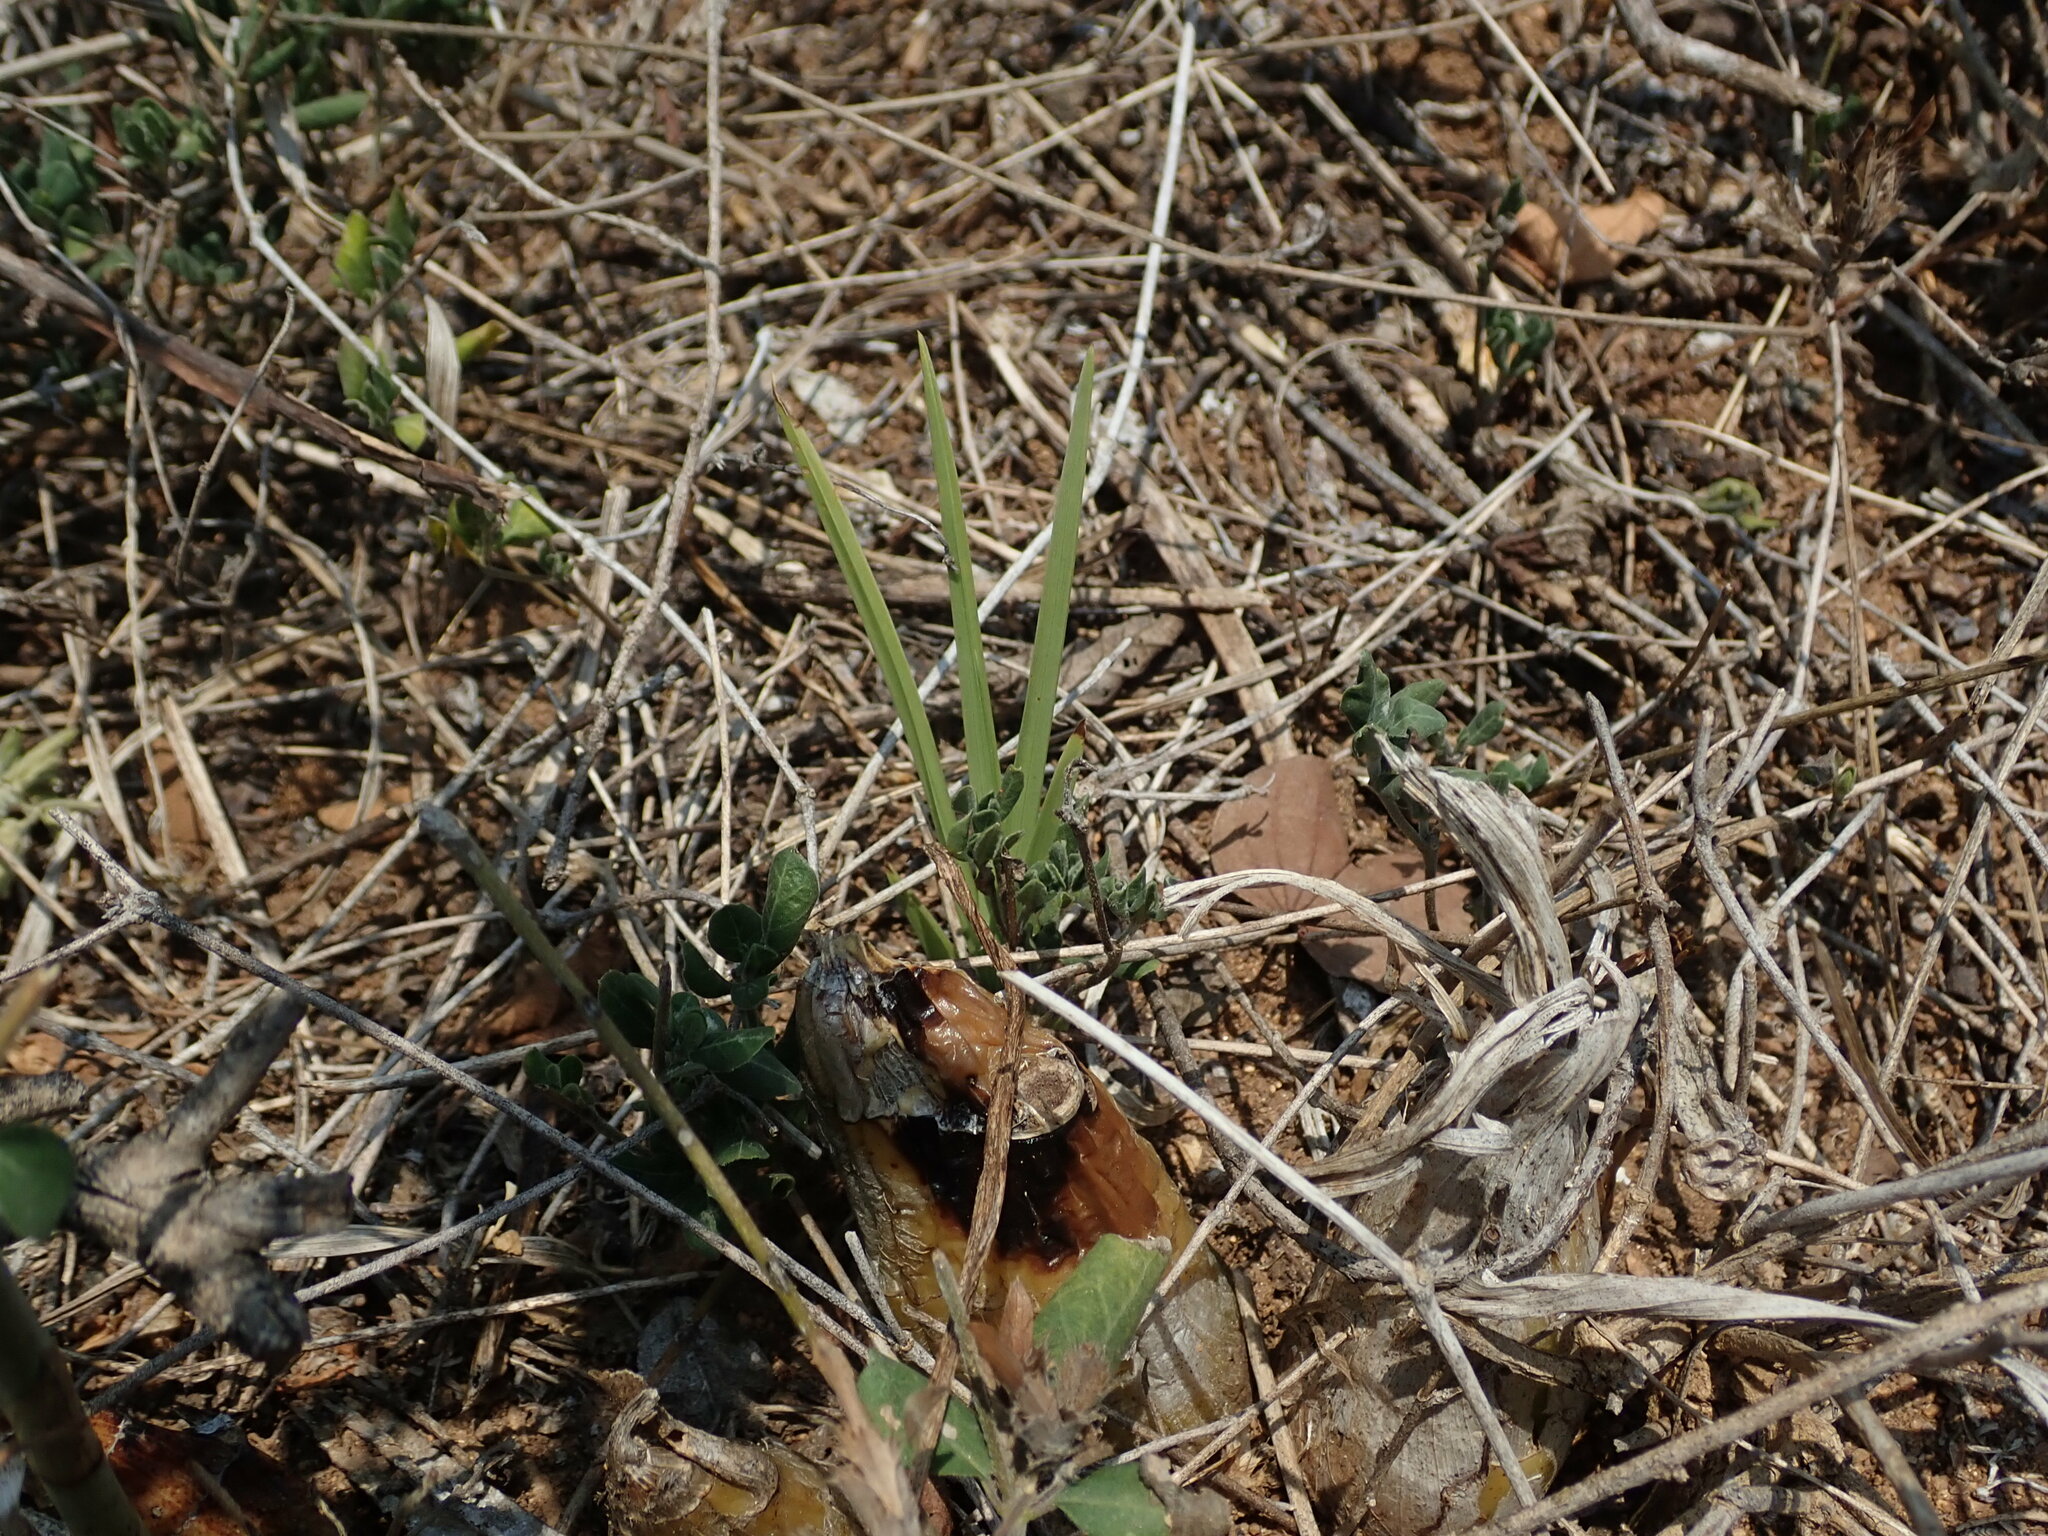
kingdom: Plantae
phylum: Tracheophyta
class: Liliopsida
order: Asparagales
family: Orchidaceae
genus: Eulophia
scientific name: Eulophia epidendraea
